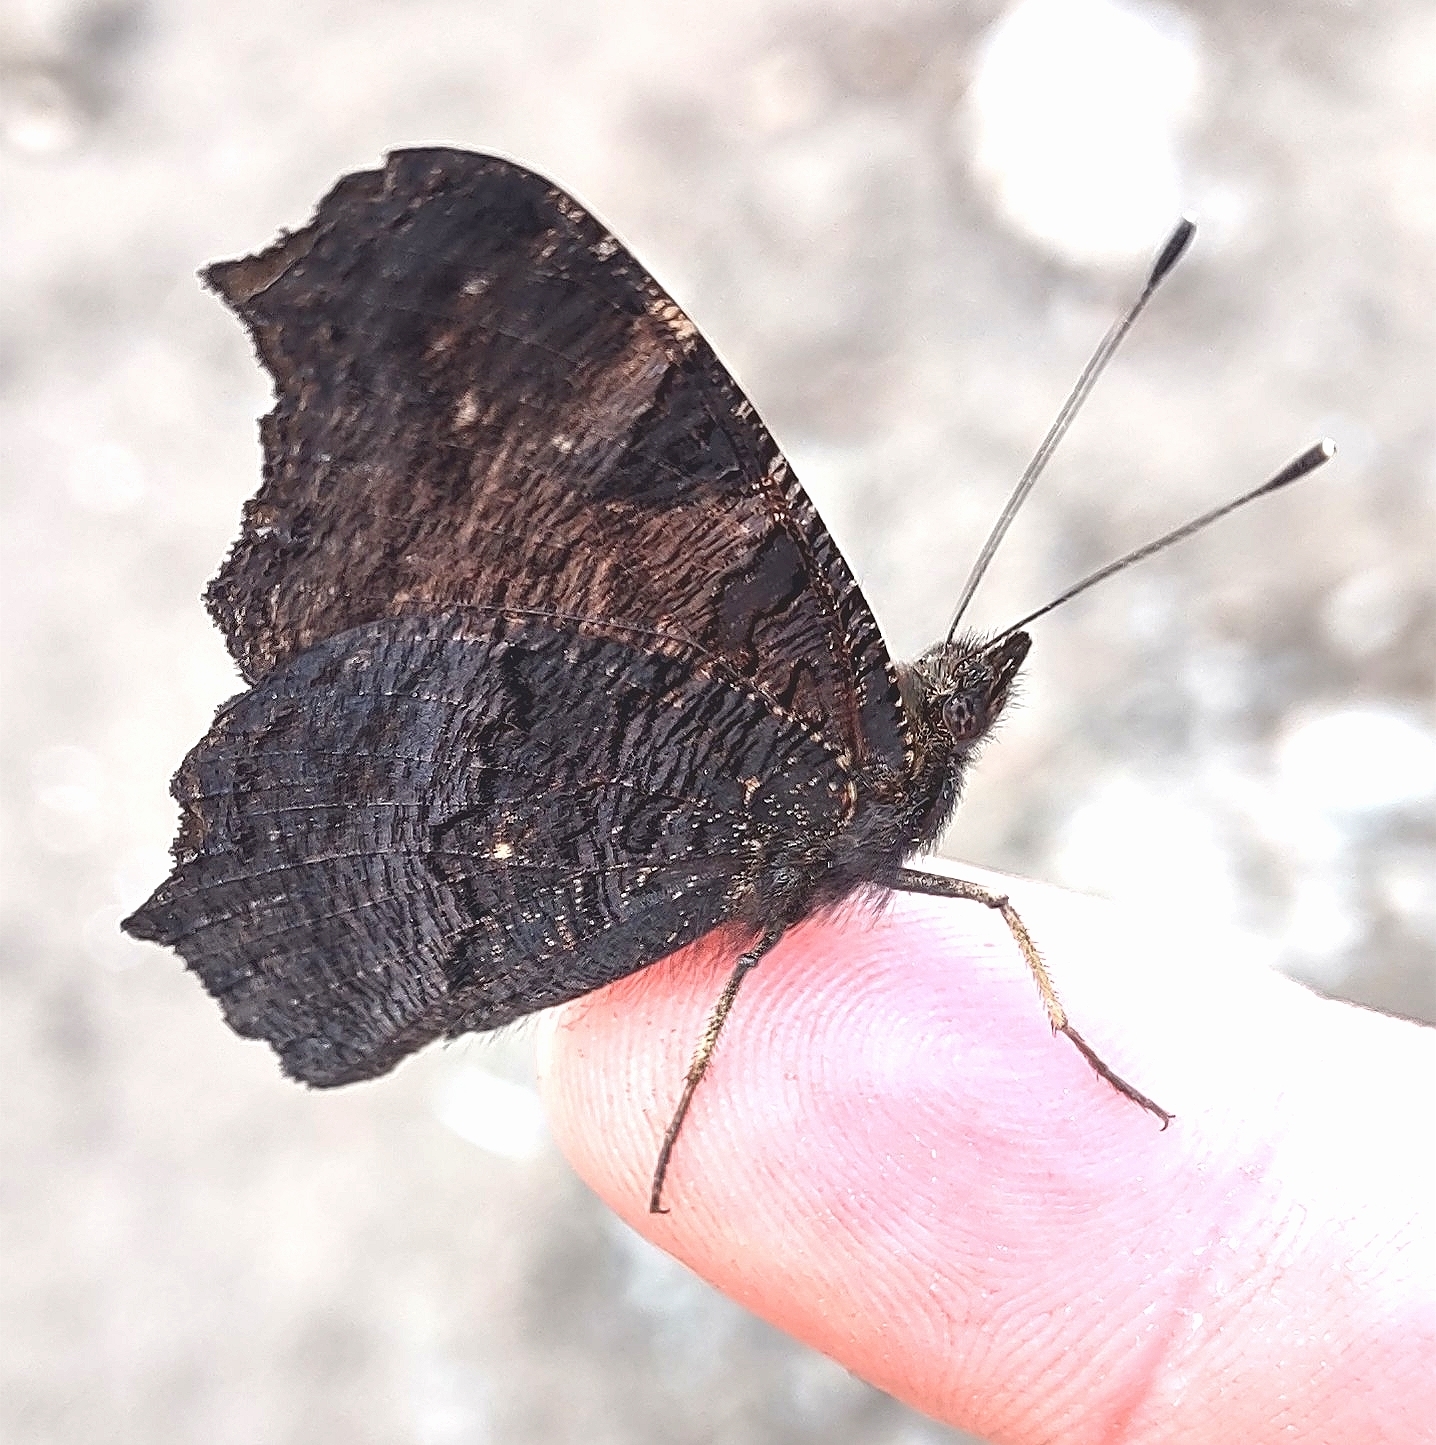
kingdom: Animalia
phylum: Arthropoda
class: Insecta
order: Lepidoptera
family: Nymphalidae
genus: Aglais
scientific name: Aglais io
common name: Peacock
